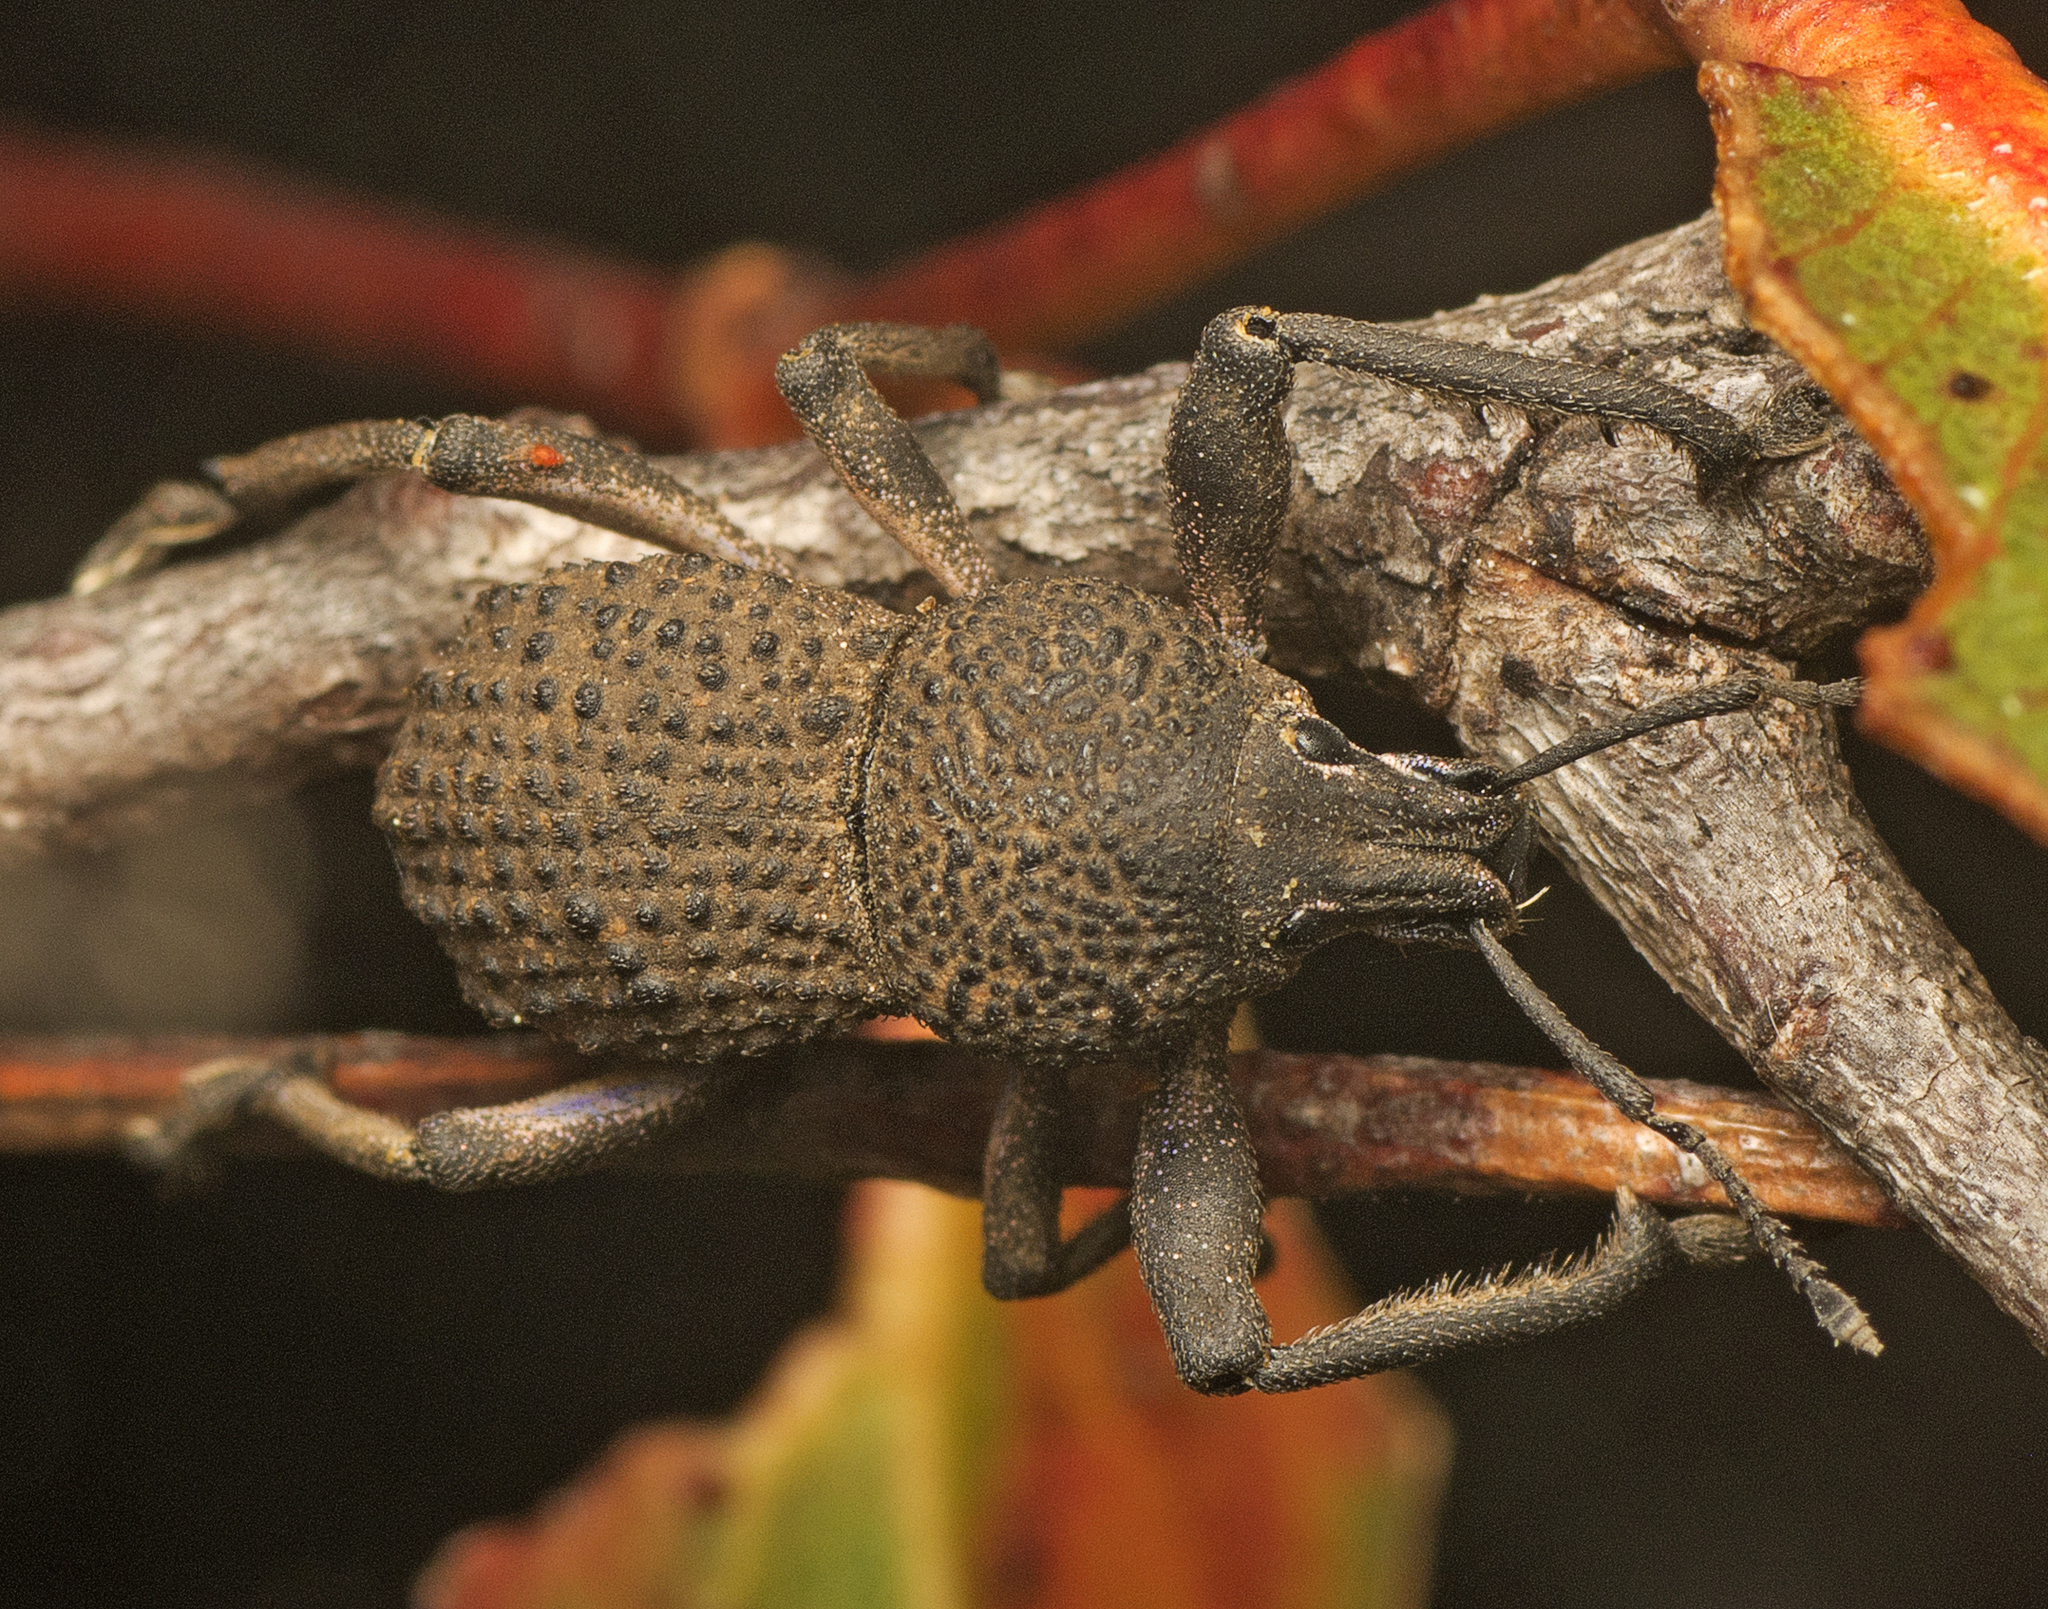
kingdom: Animalia
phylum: Arthropoda
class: Insecta
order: Coleoptera
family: Curculionidae
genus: Psapharus
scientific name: Psapharus infaustus
